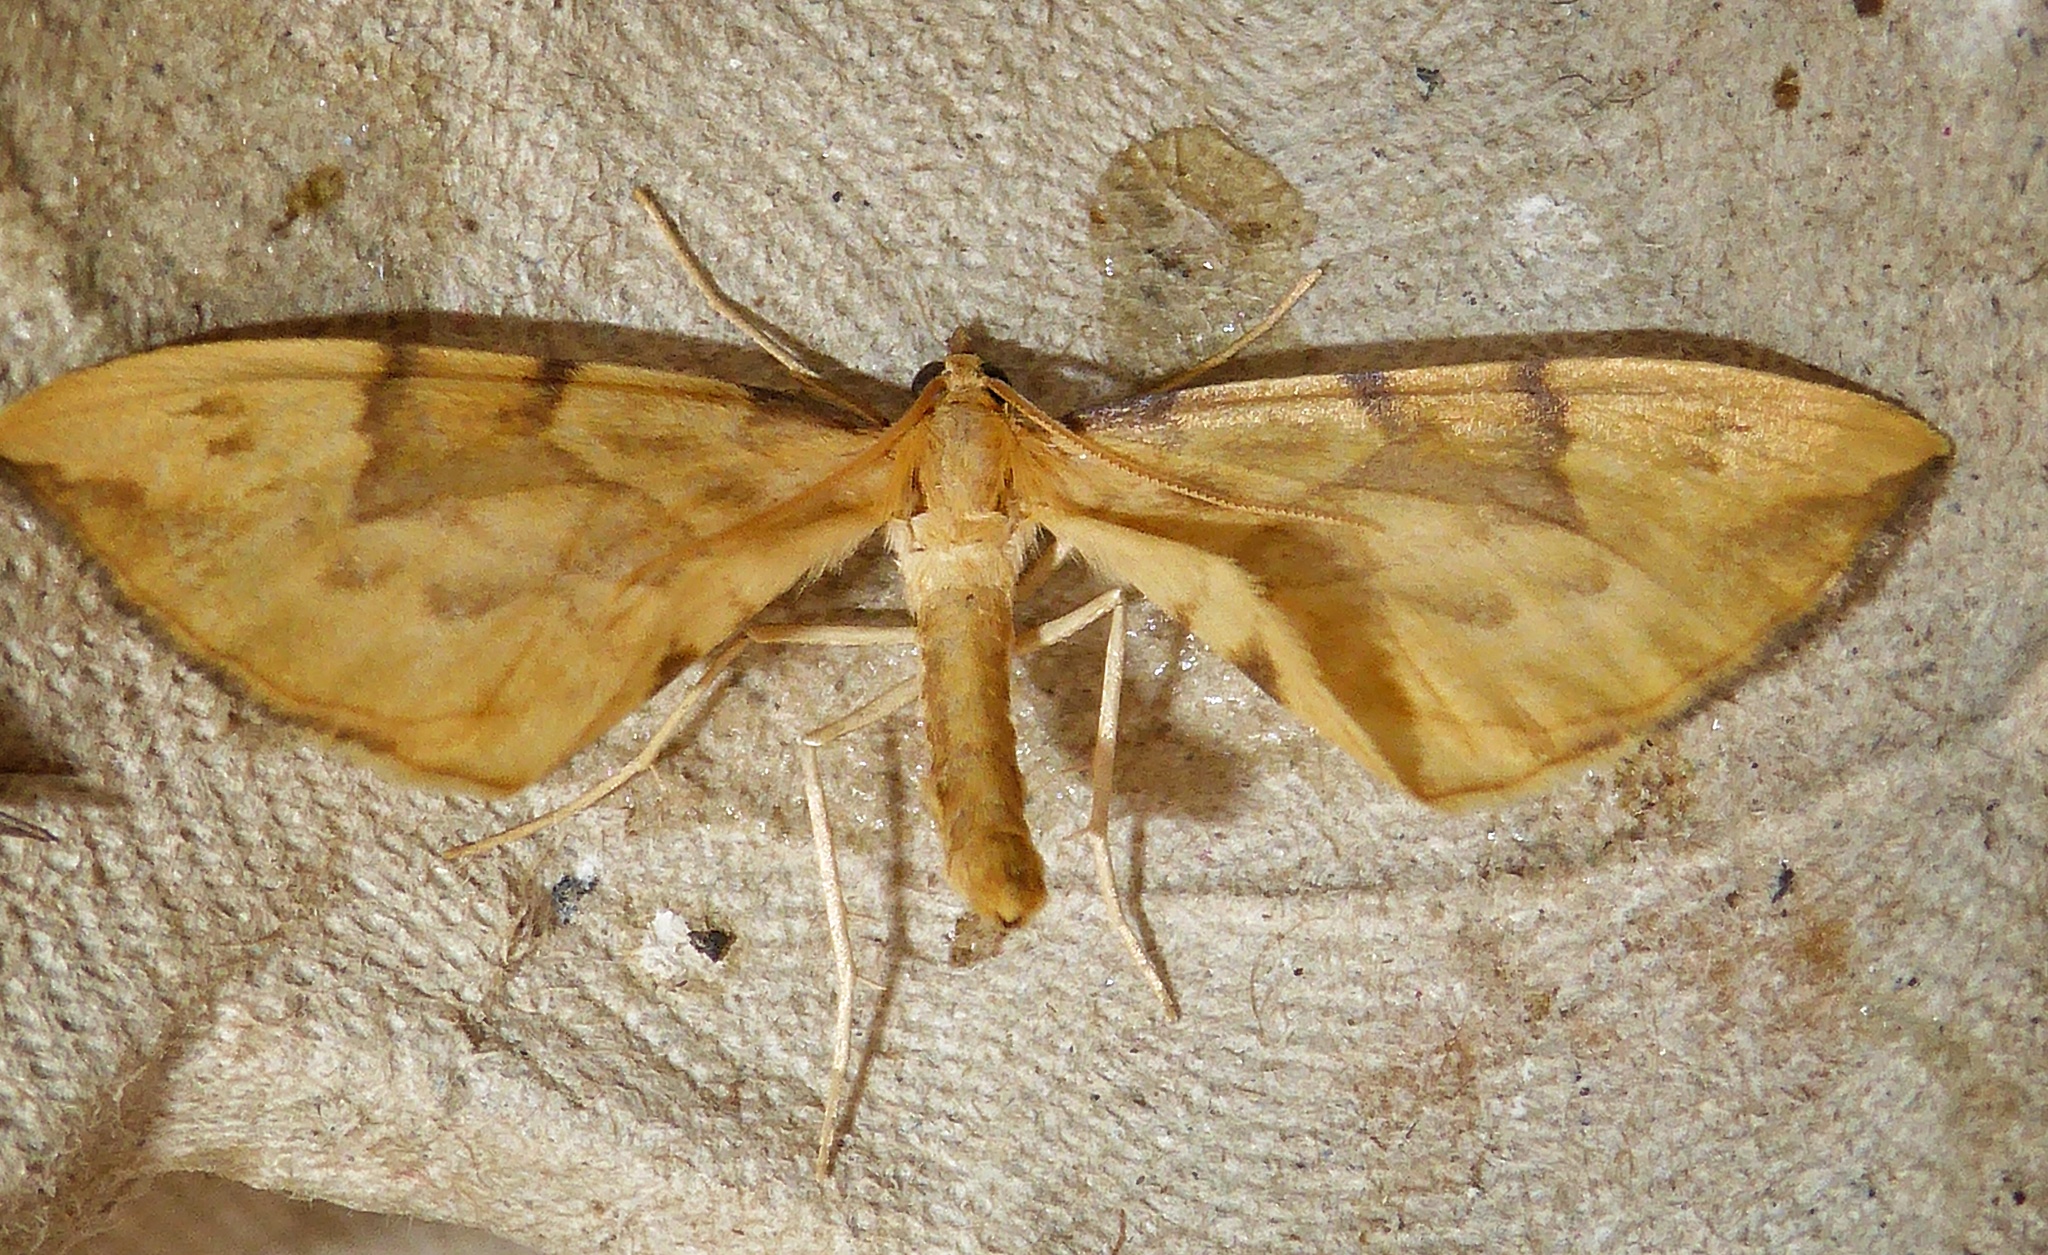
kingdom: Animalia
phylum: Arthropoda
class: Insecta
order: Lepidoptera
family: Geometridae
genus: Eulithis
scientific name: Eulithis pyraliata
